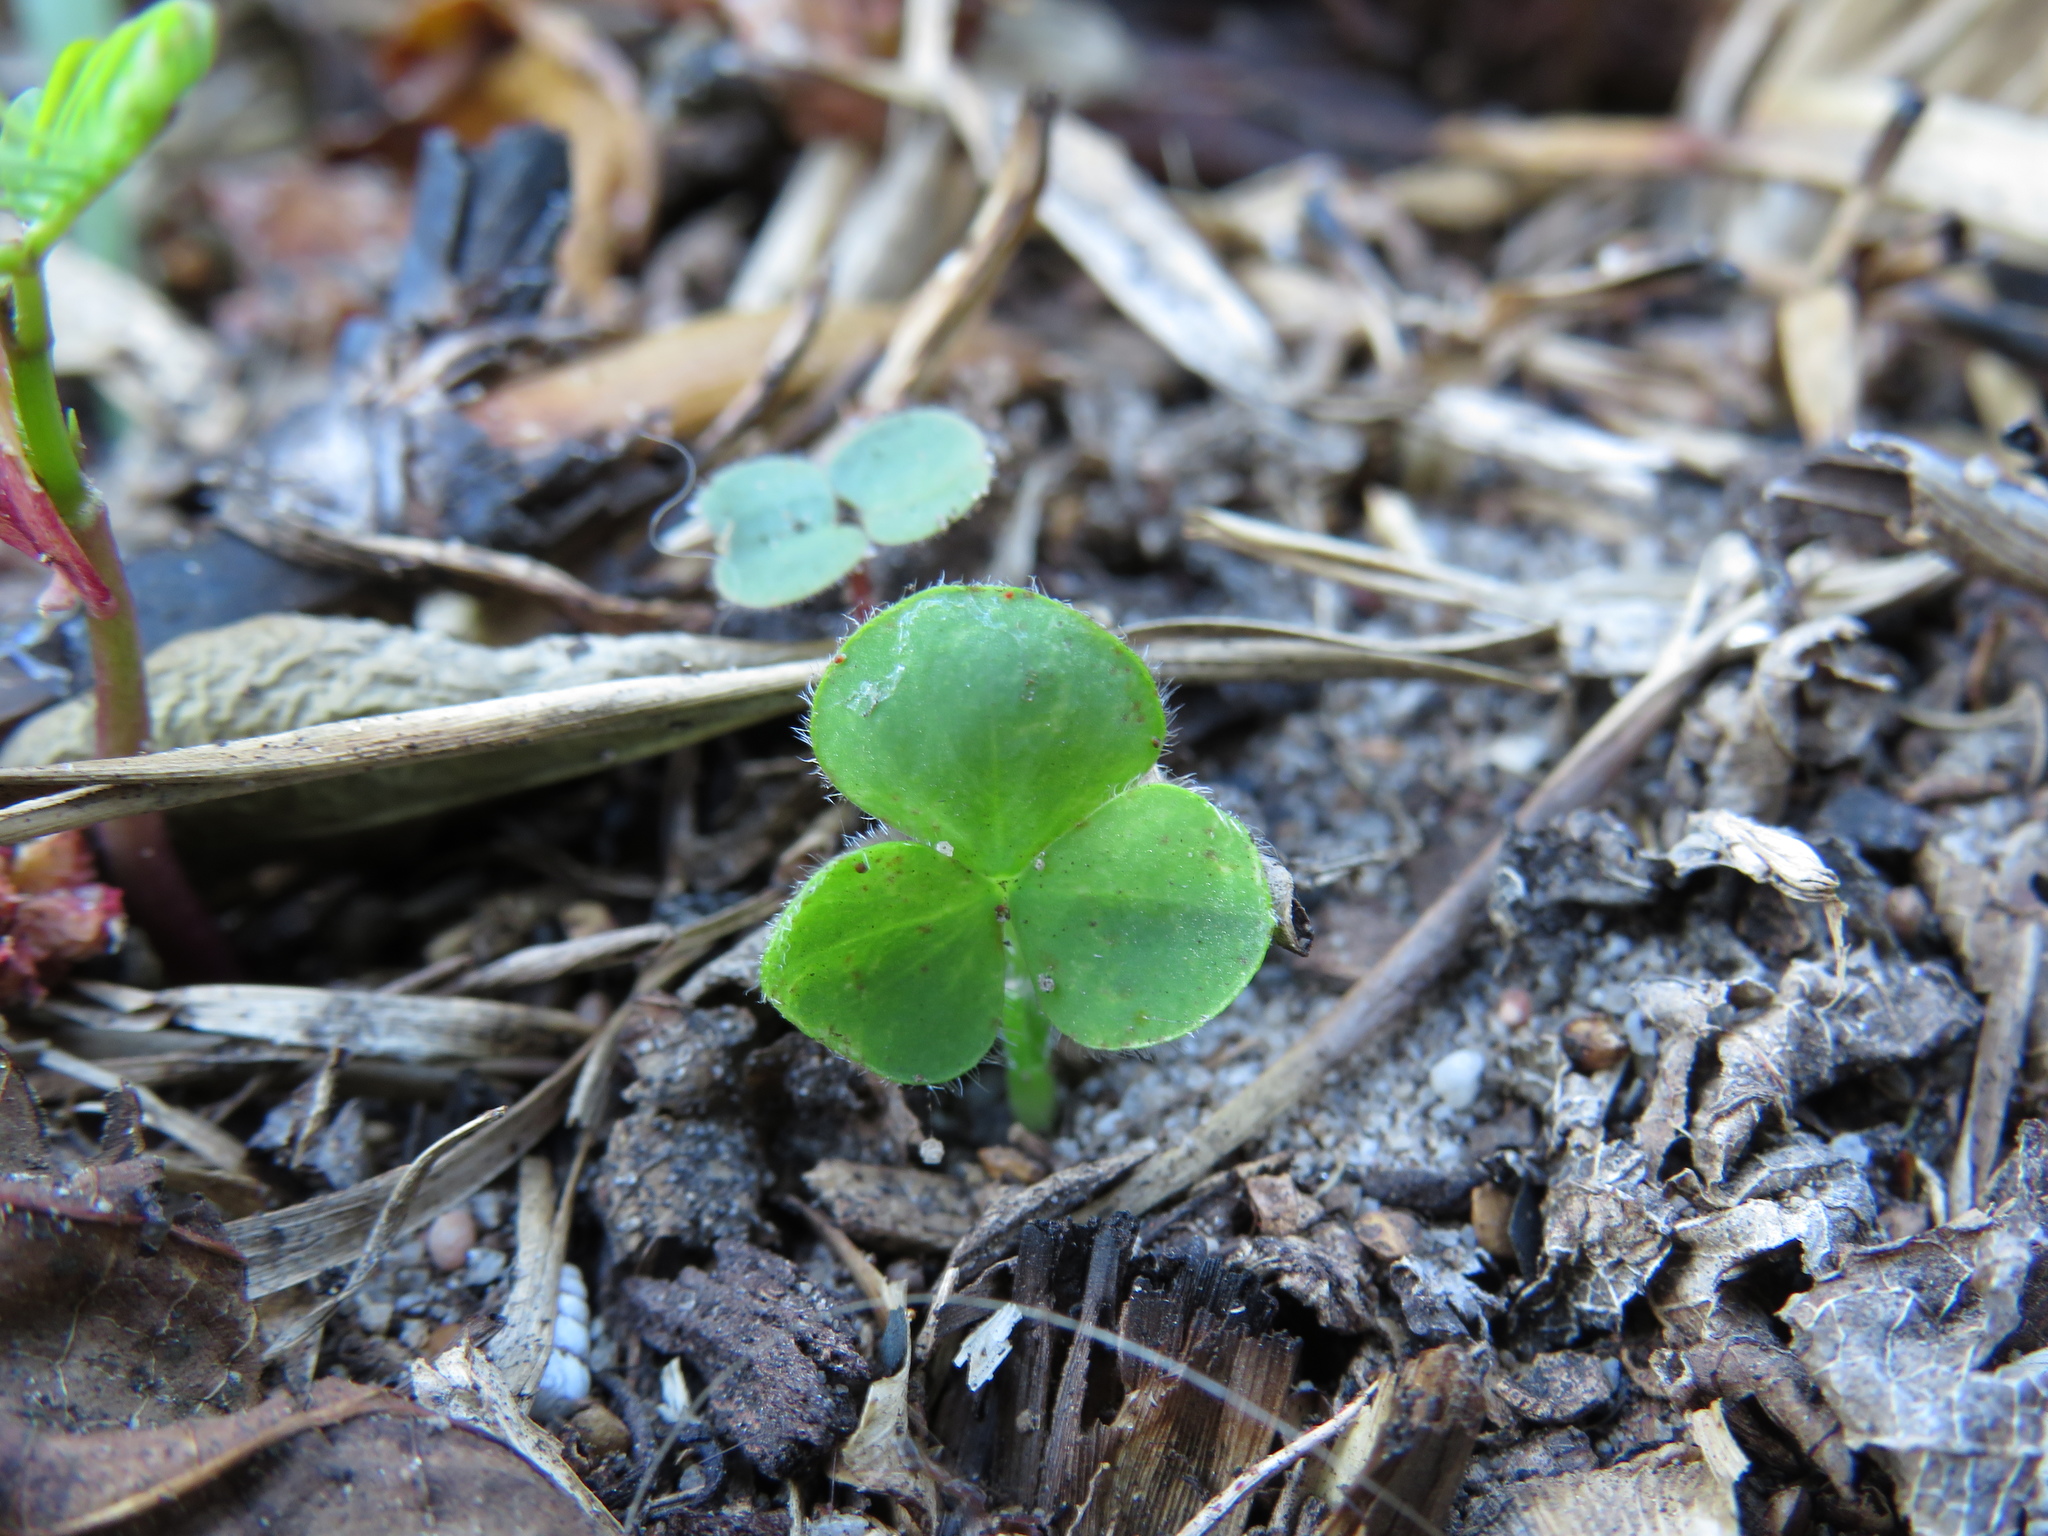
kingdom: Plantae
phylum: Tracheophyta
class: Magnoliopsida
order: Oxalidales
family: Oxalidaceae
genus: Oxalis
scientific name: Oxalis purpurea
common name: Purple woodsorrel
